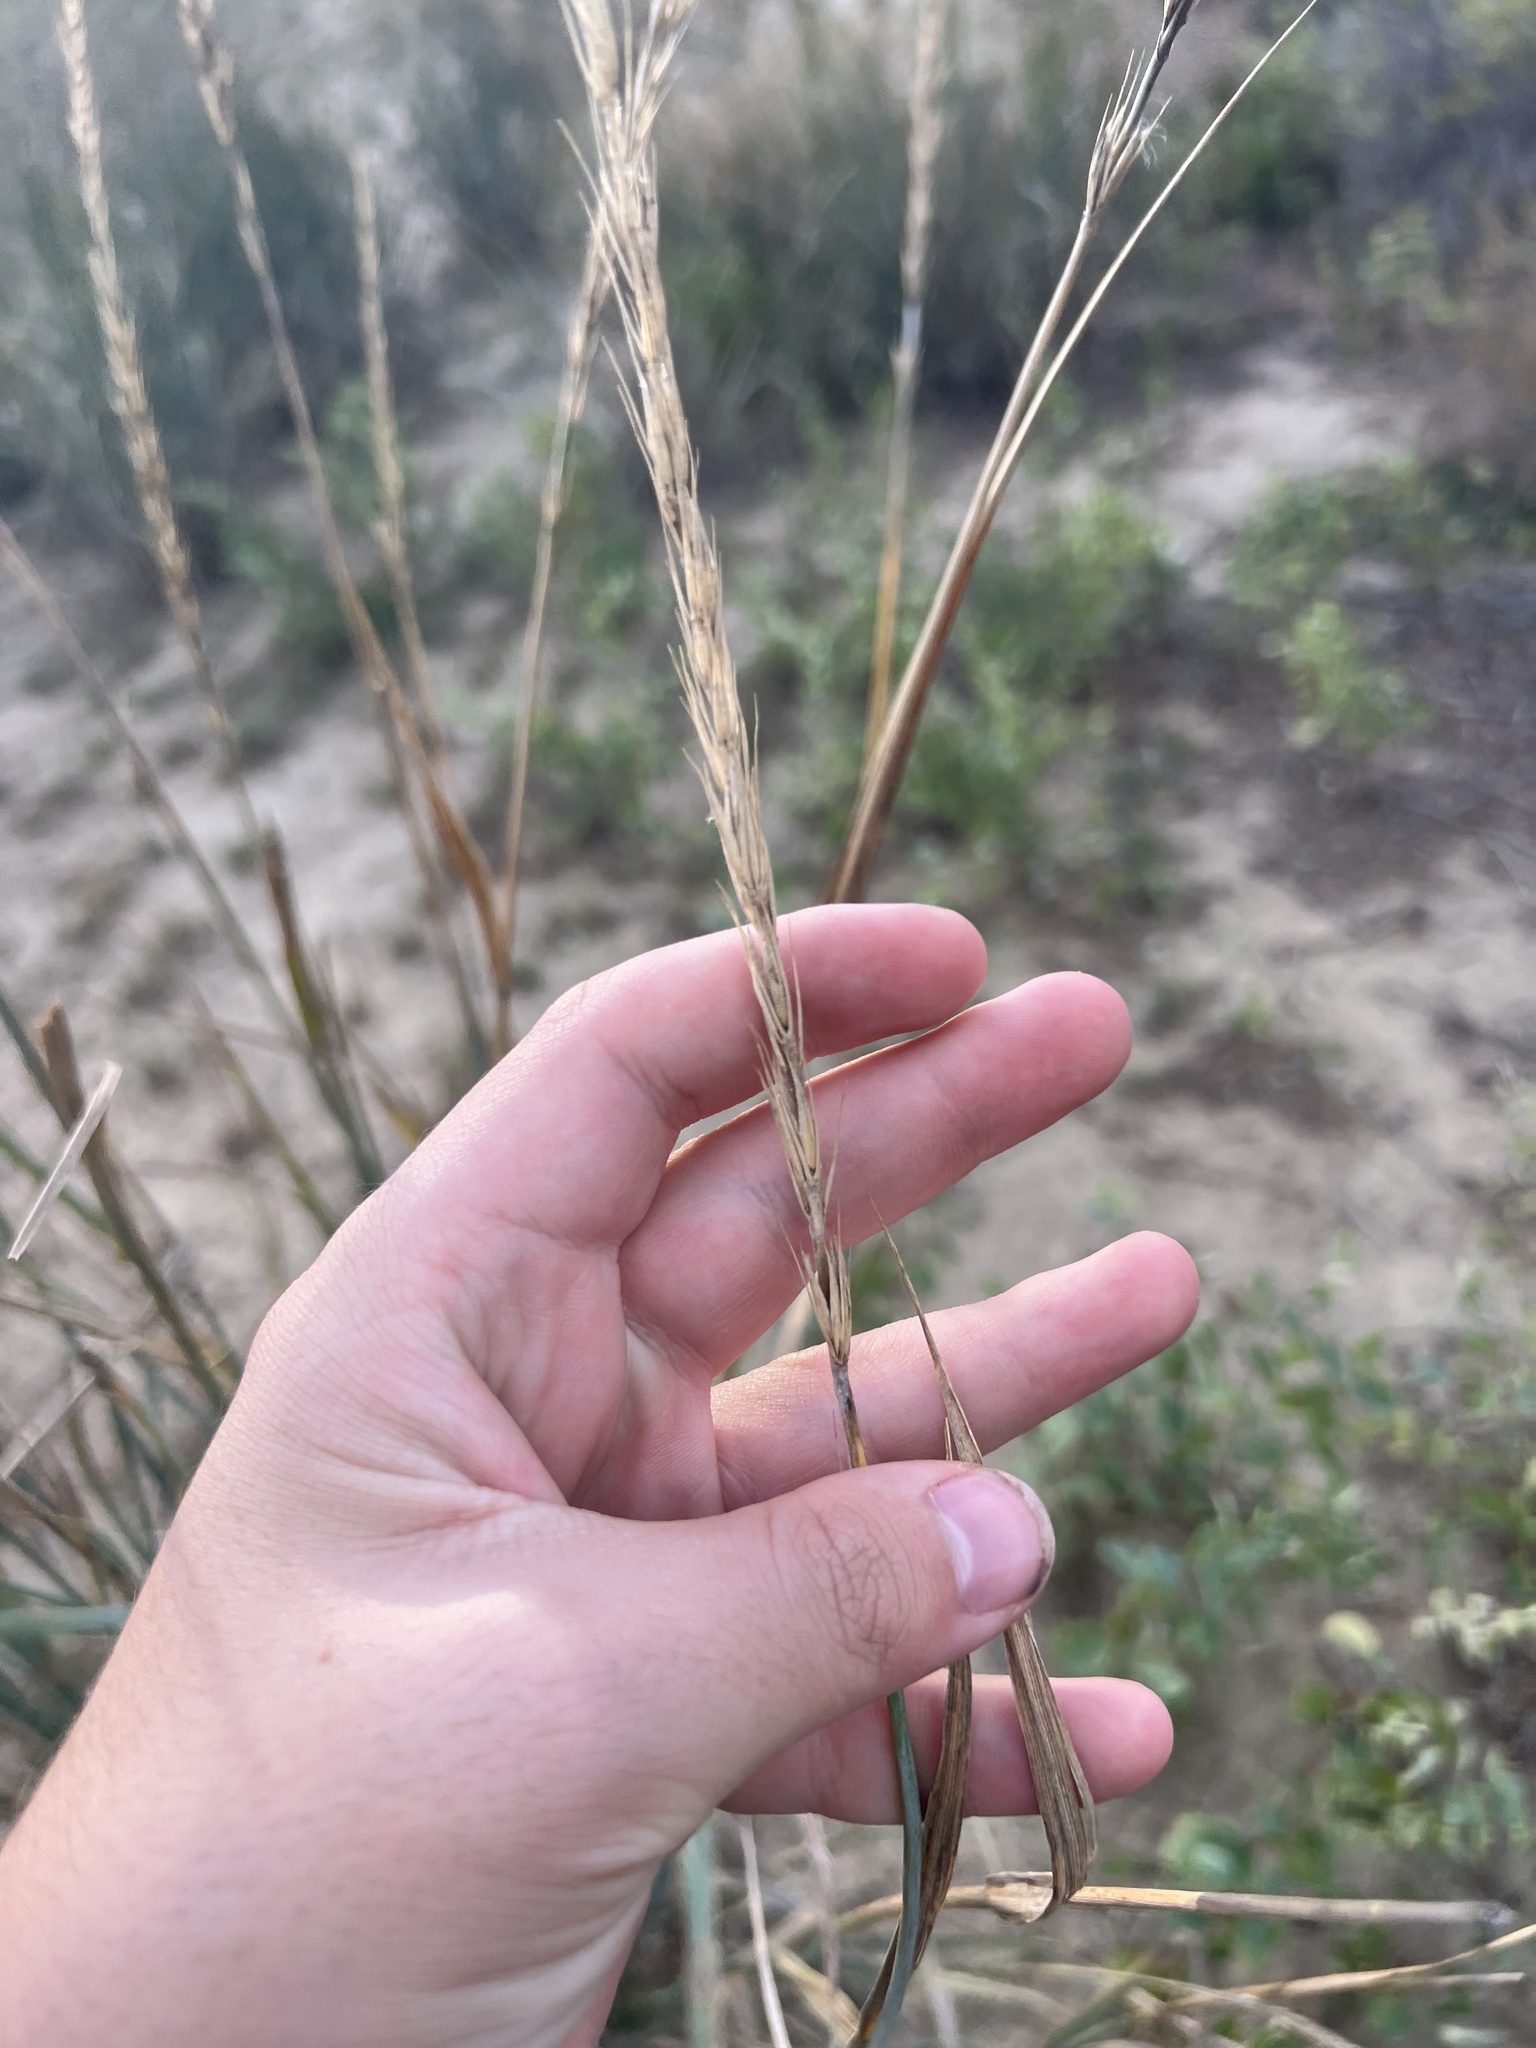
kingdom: Plantae
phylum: Tracheophyta
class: Liliopsida
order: Poales
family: Poaceae
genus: Leymus
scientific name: Leymus cinereus
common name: Basin wild rye
